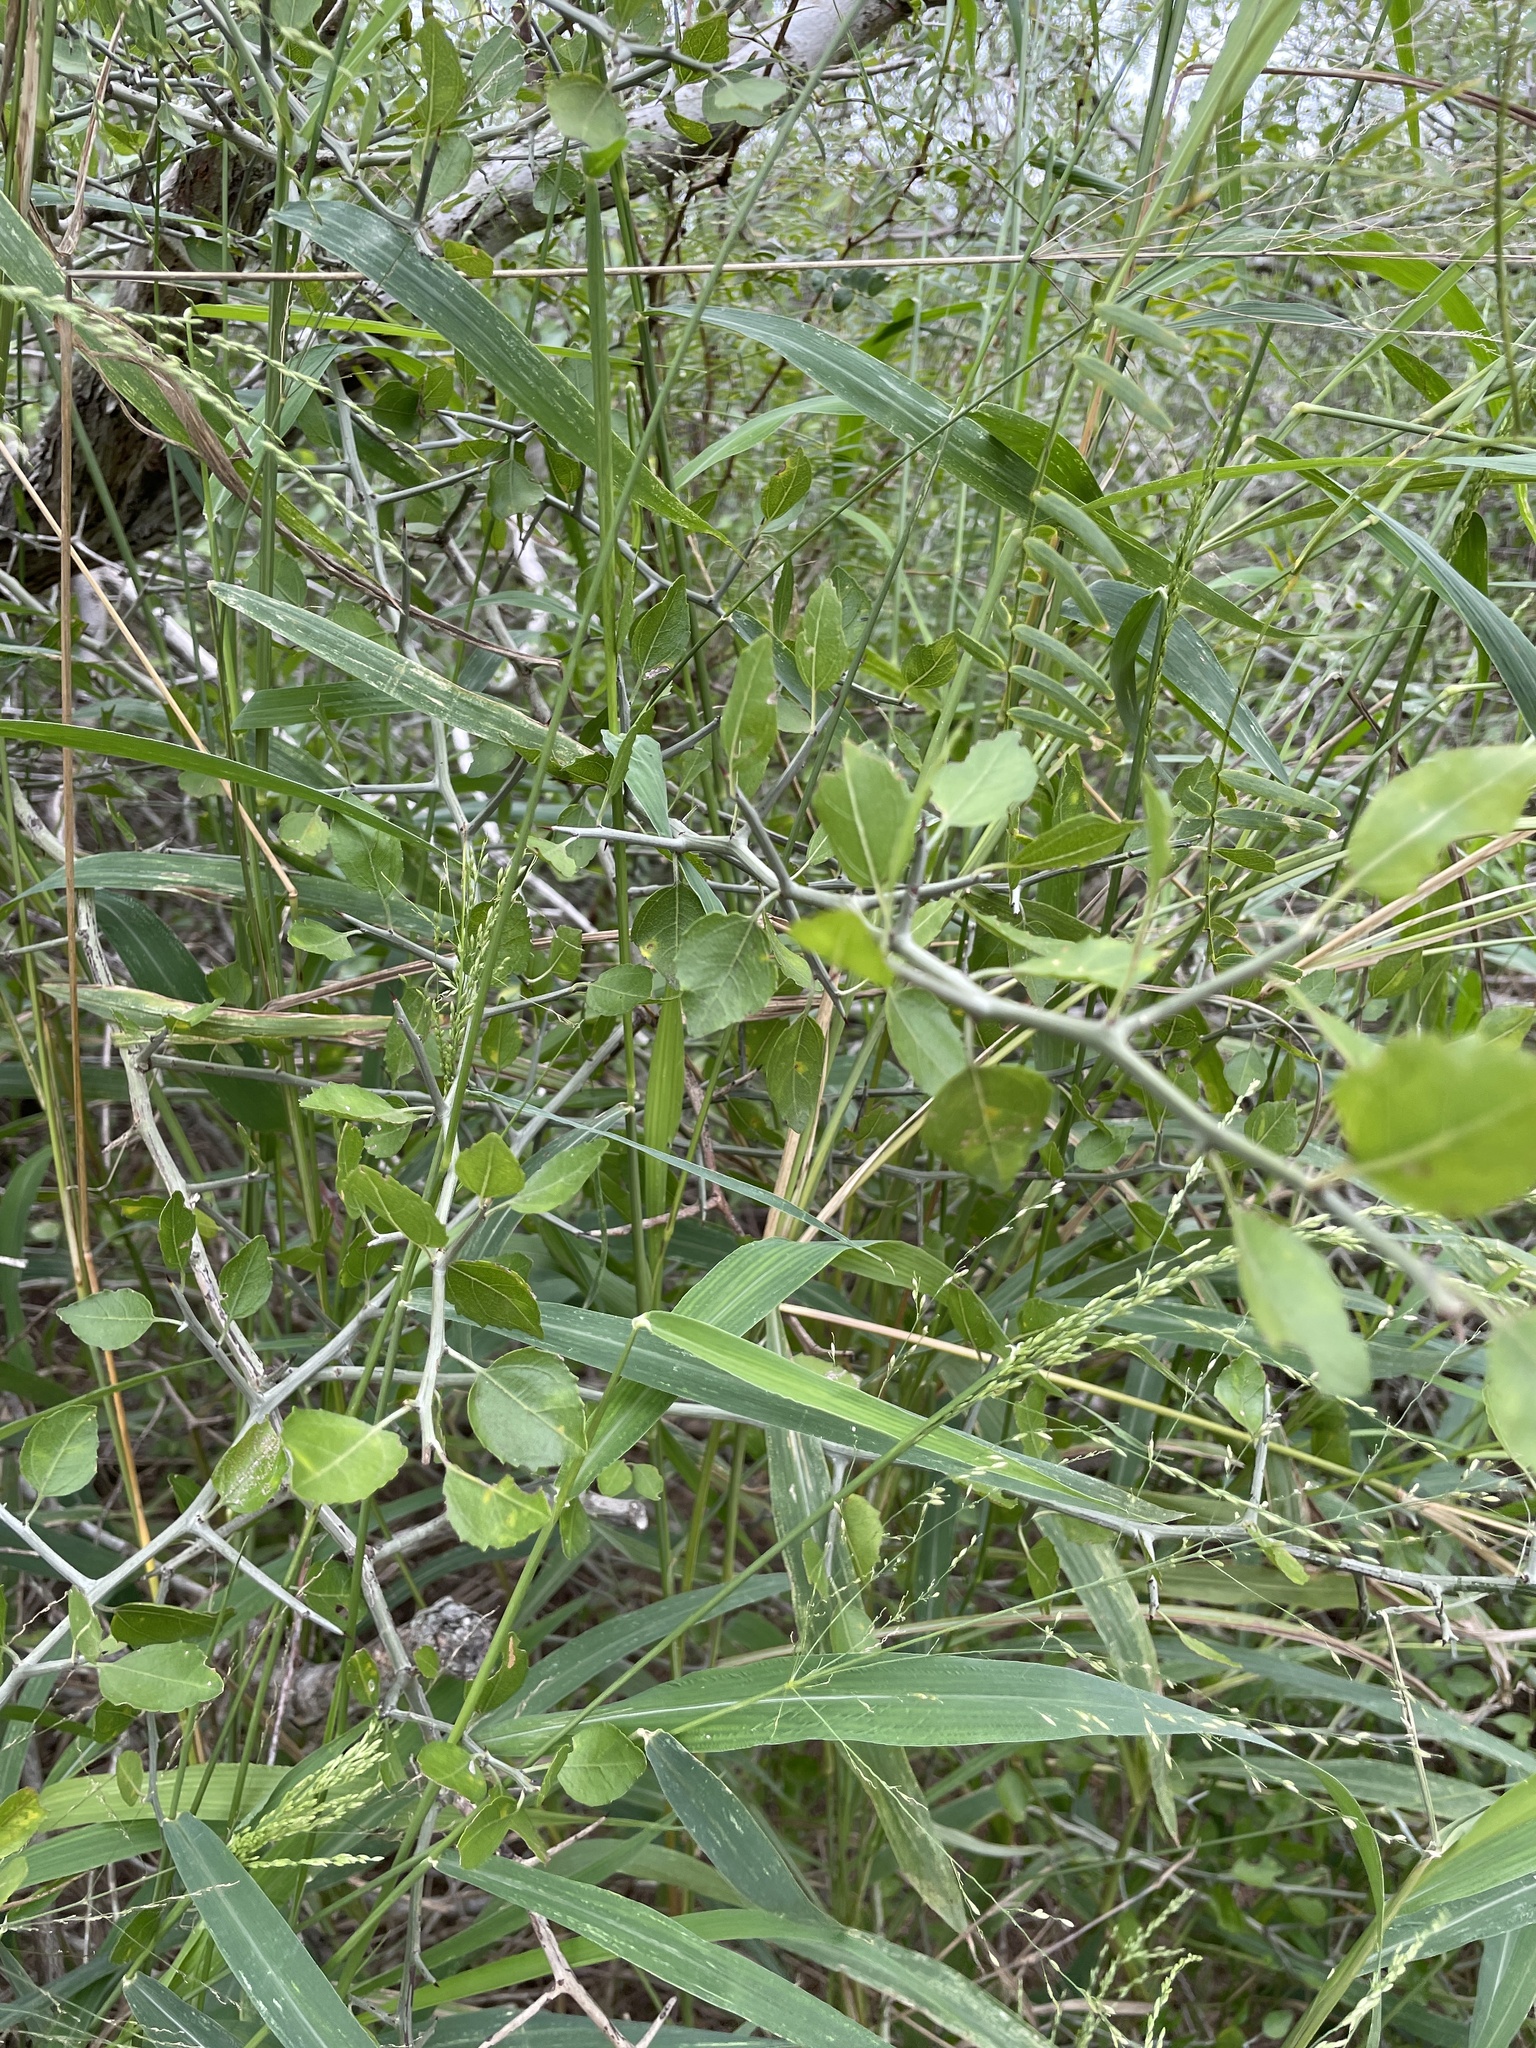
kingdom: Plantae
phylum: Tracheophyta
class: Magnoliopsida
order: Rosales
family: Rhamnaceae
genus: Sarcomphalus
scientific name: Sarcomphalus obtusifolius
